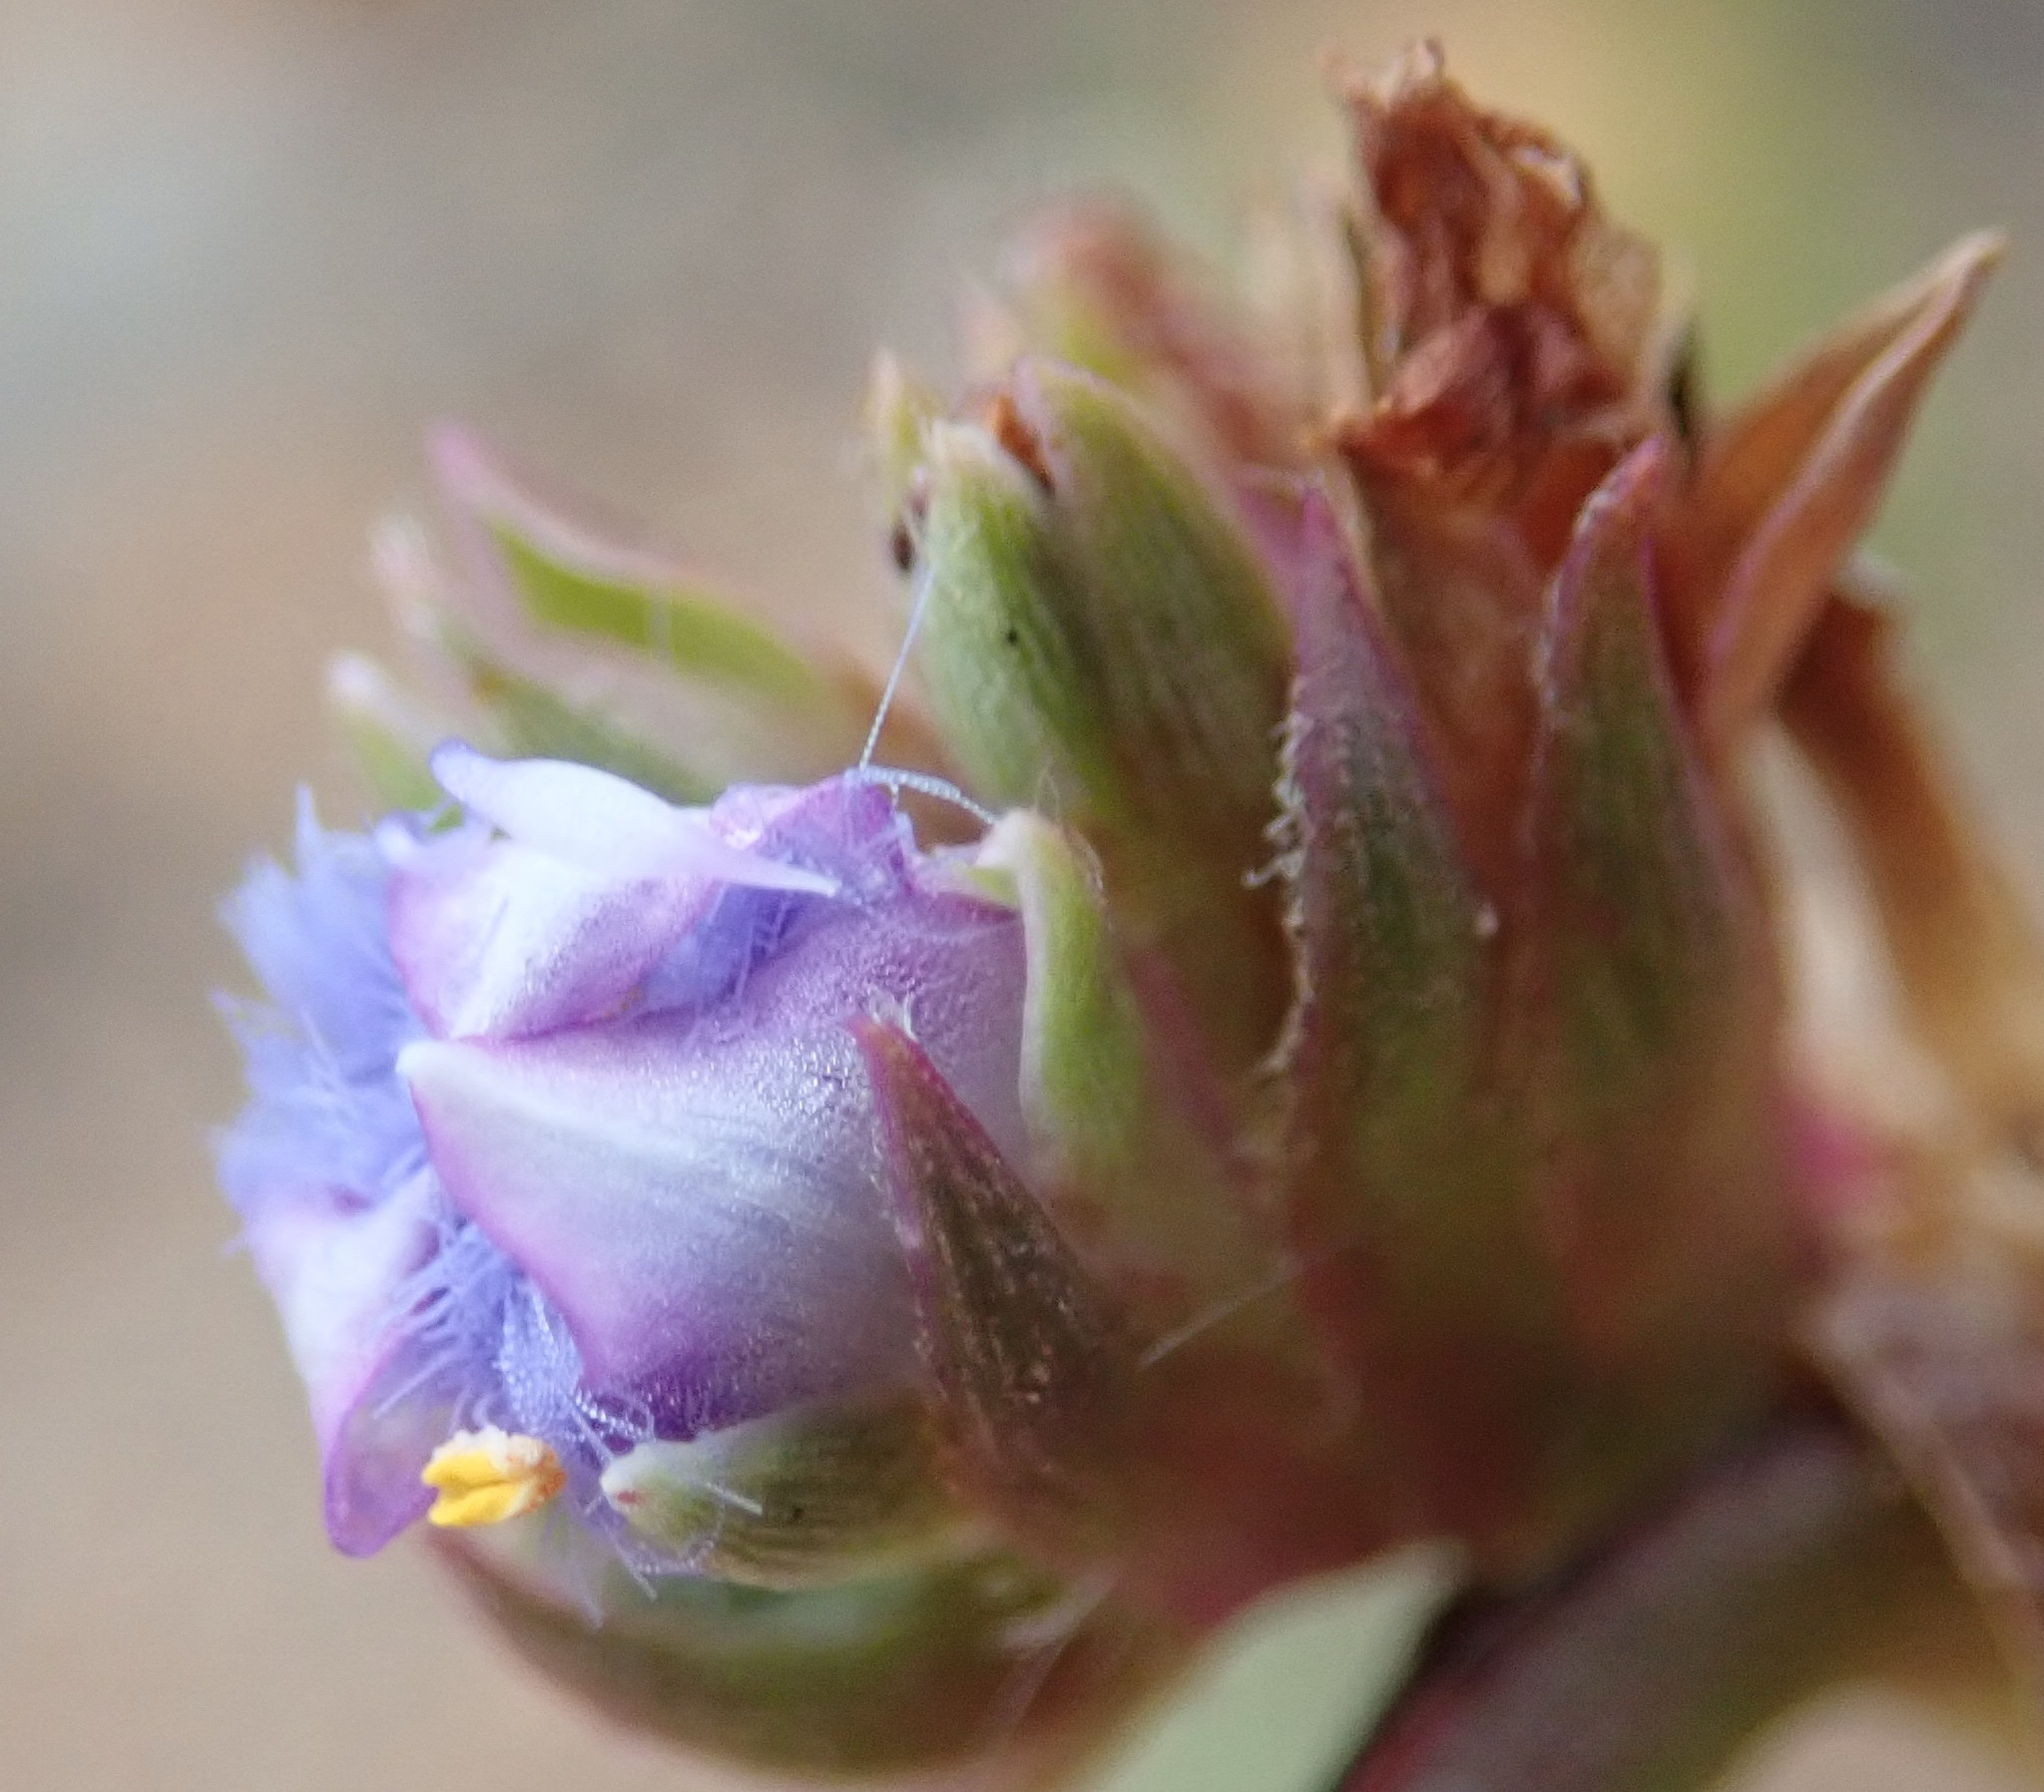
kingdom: Plantae
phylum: Tracheophyta
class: Liliopsida
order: Commelinales
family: Commelinaceae
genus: Cyanotis
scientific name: Cyanotis speciosa
